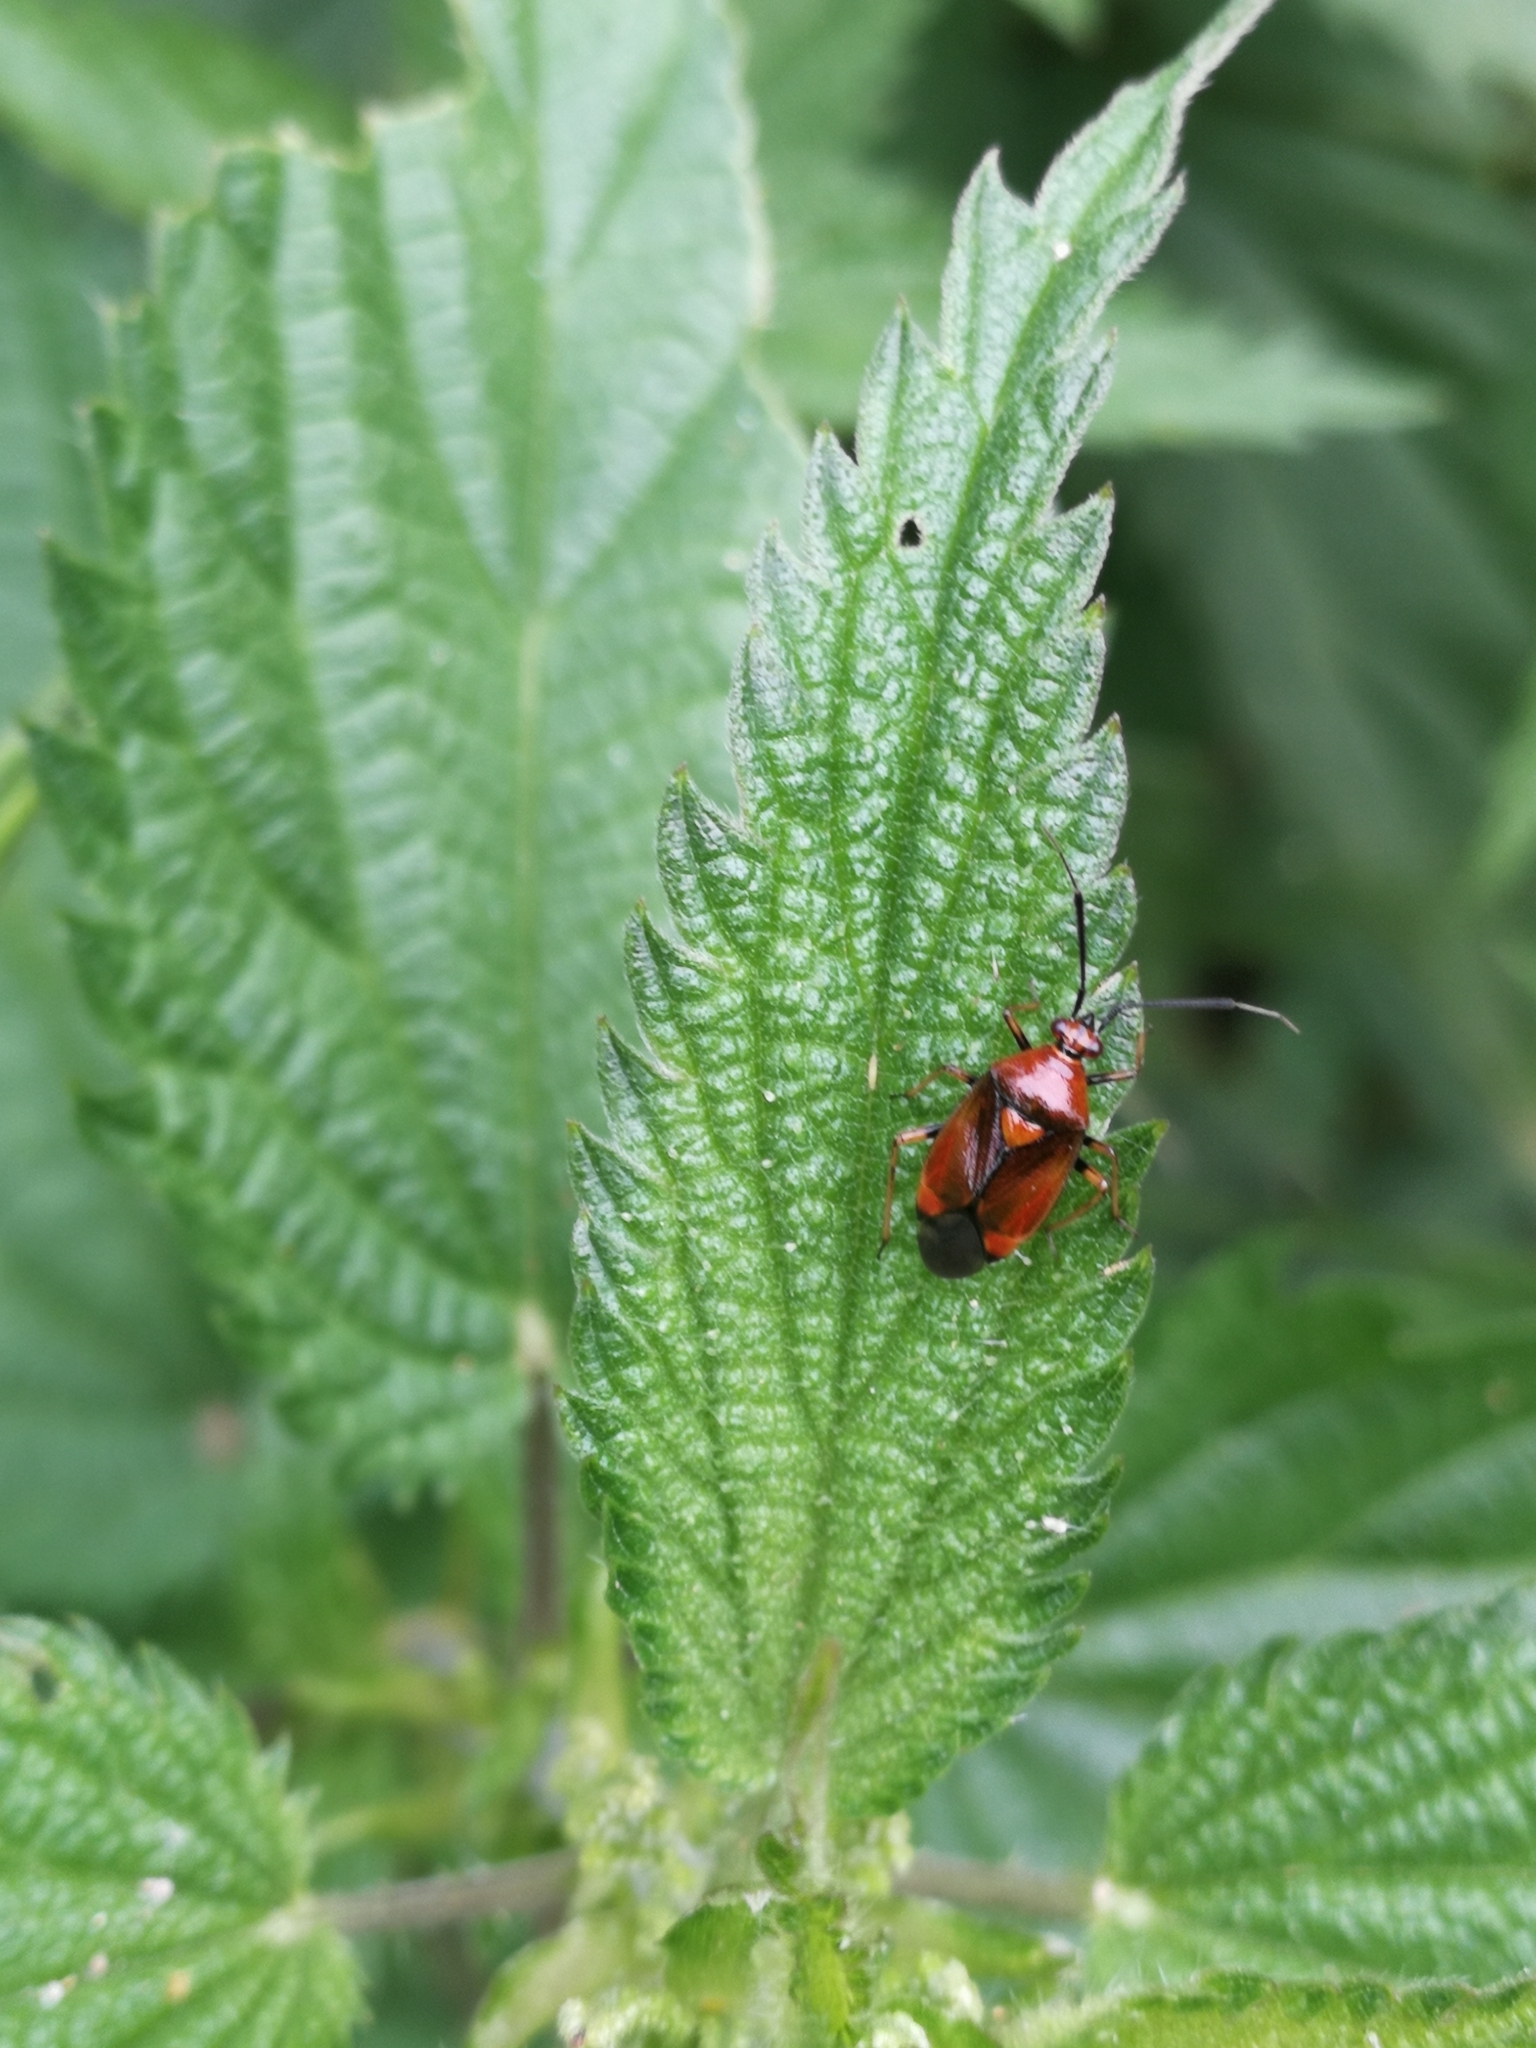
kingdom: Animalia
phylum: Arthropoda
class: Insecta
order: Hemiptera
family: Miridae
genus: Deraeocoris
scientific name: Deraeocoris ruber
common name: Plant bug
